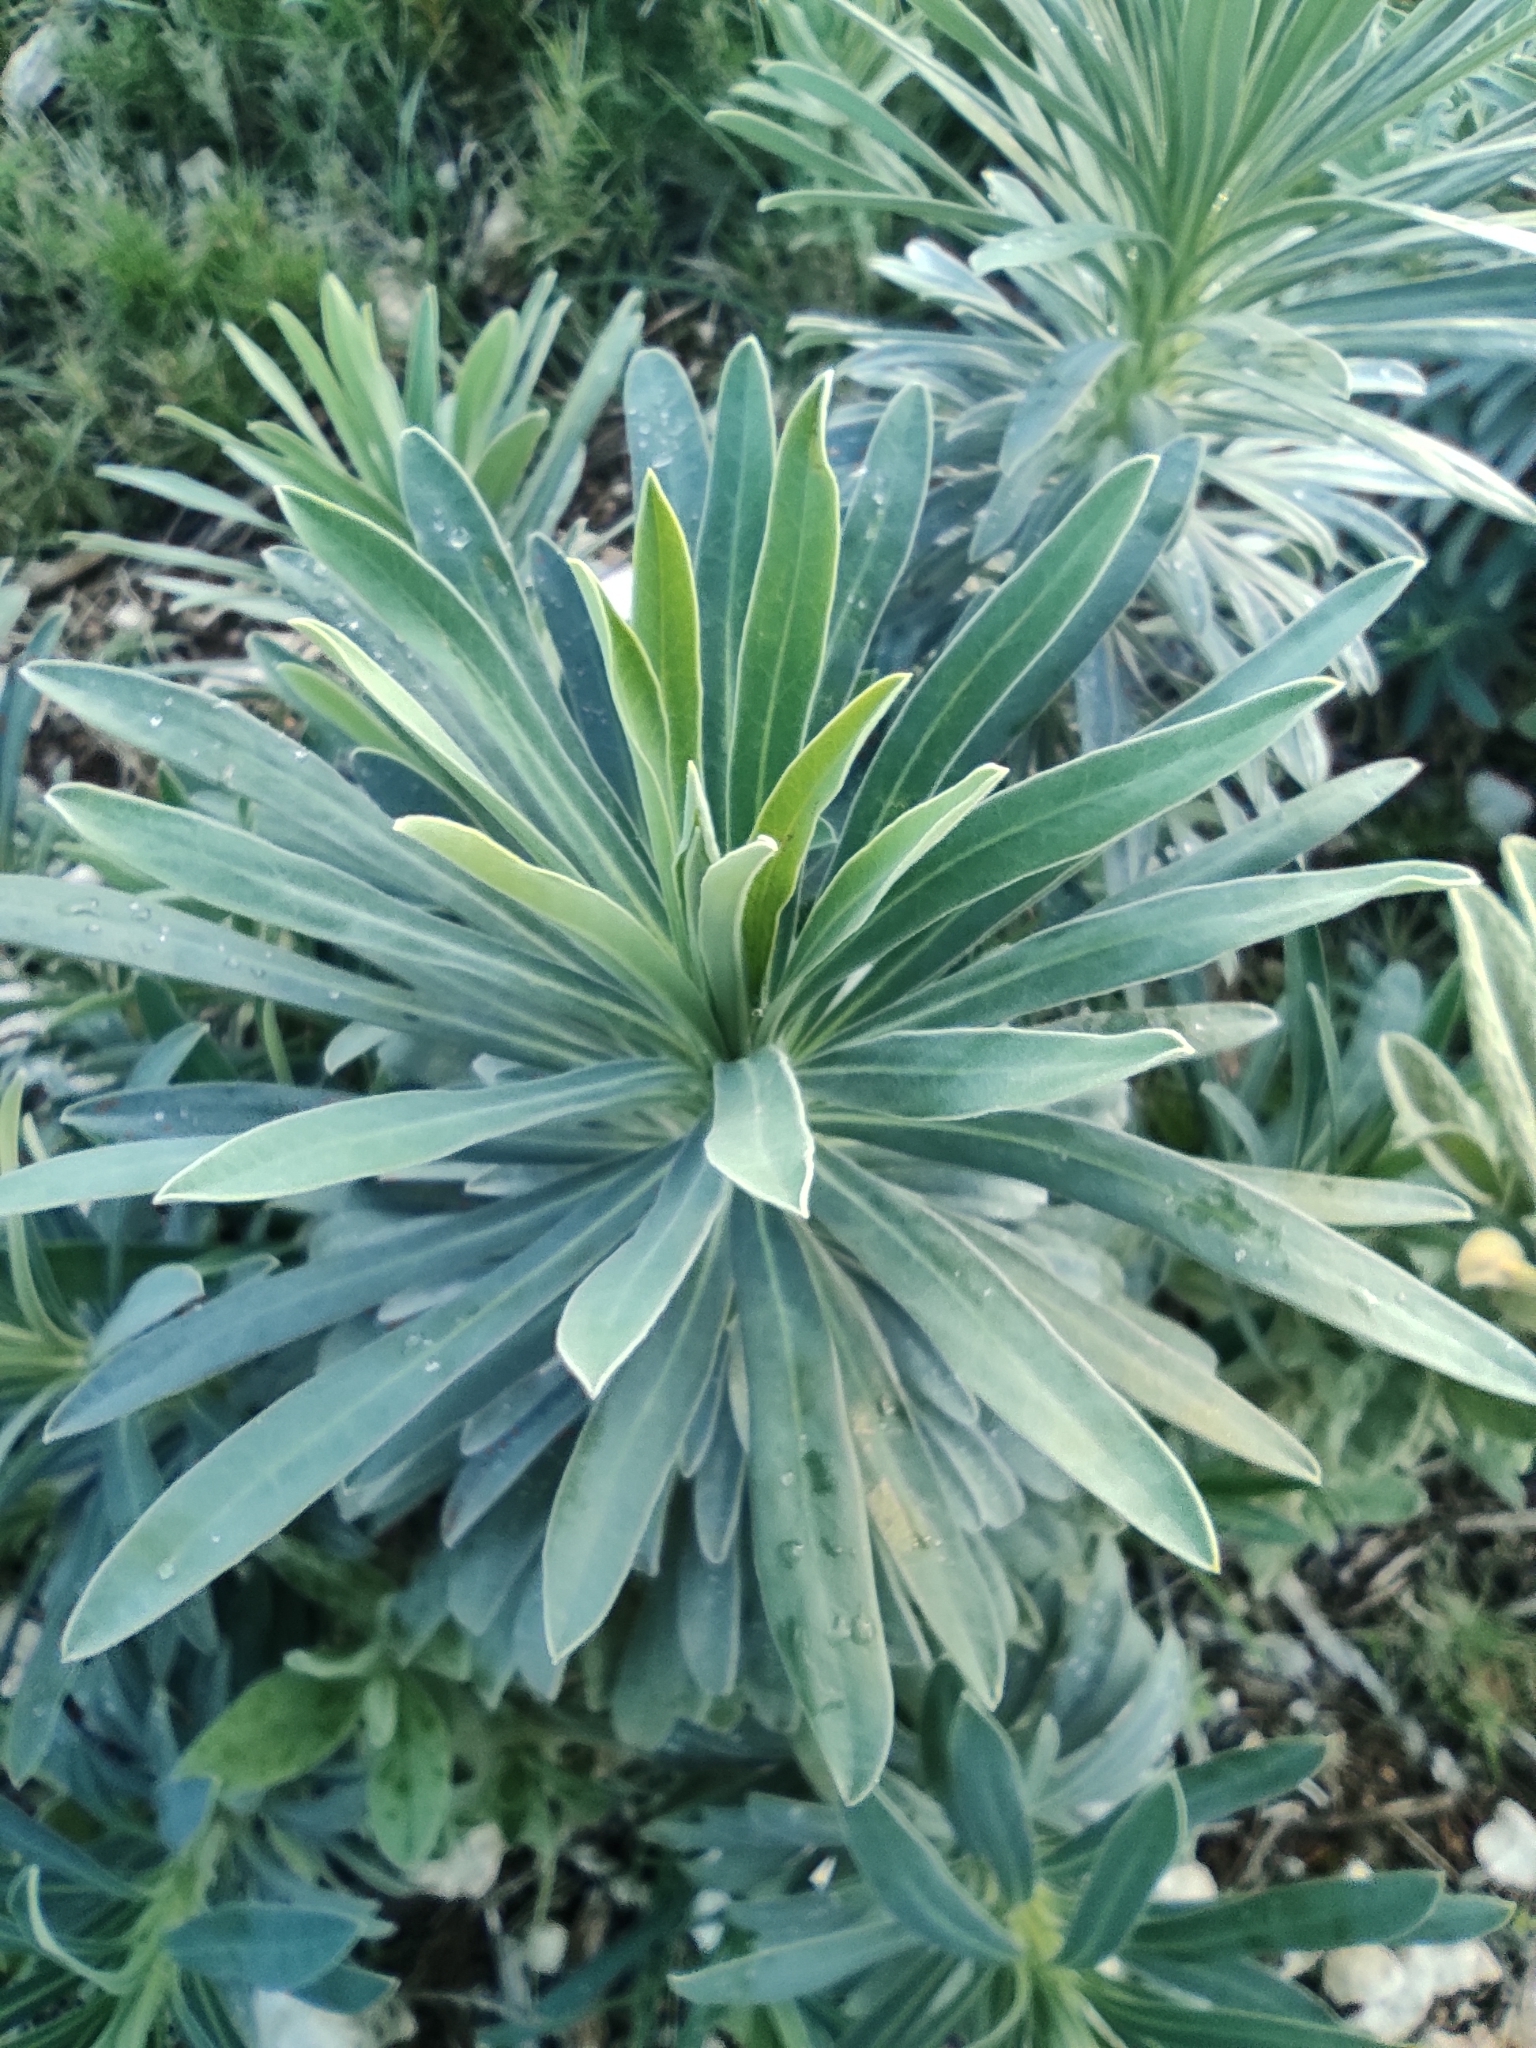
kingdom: Plantae
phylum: Tracheophyta
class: Magnoliopsida
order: Malpighiales
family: Euphorbiaceae
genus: Euphorbia
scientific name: Euphorbia characias
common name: Mediterranean spurge
